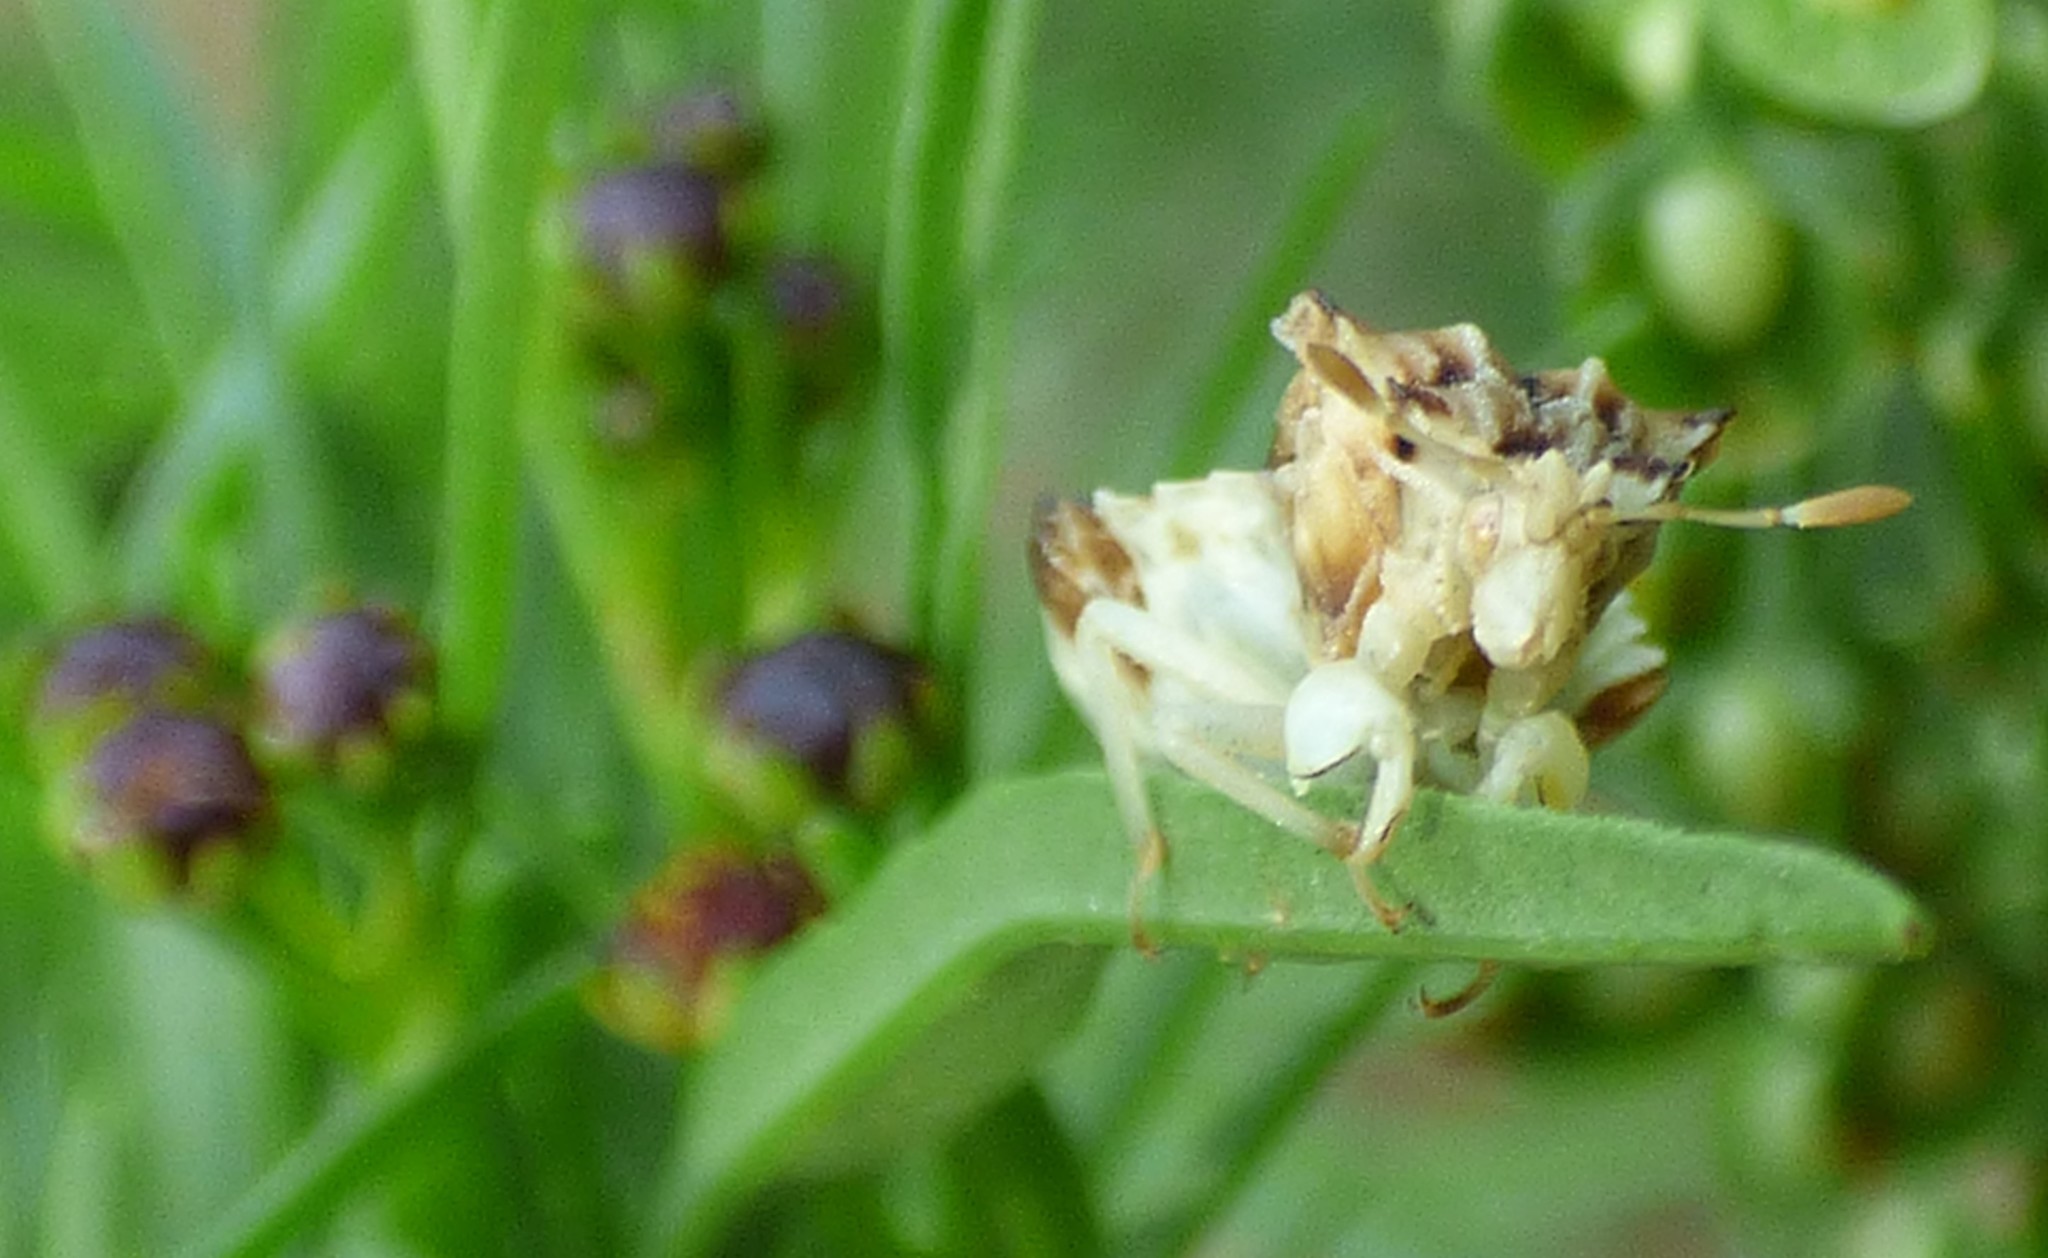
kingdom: Animalia
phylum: Arthropoda
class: Insecta
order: Hemiptera
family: Reduviidae
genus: Phymata
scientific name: Phymata fasciata
